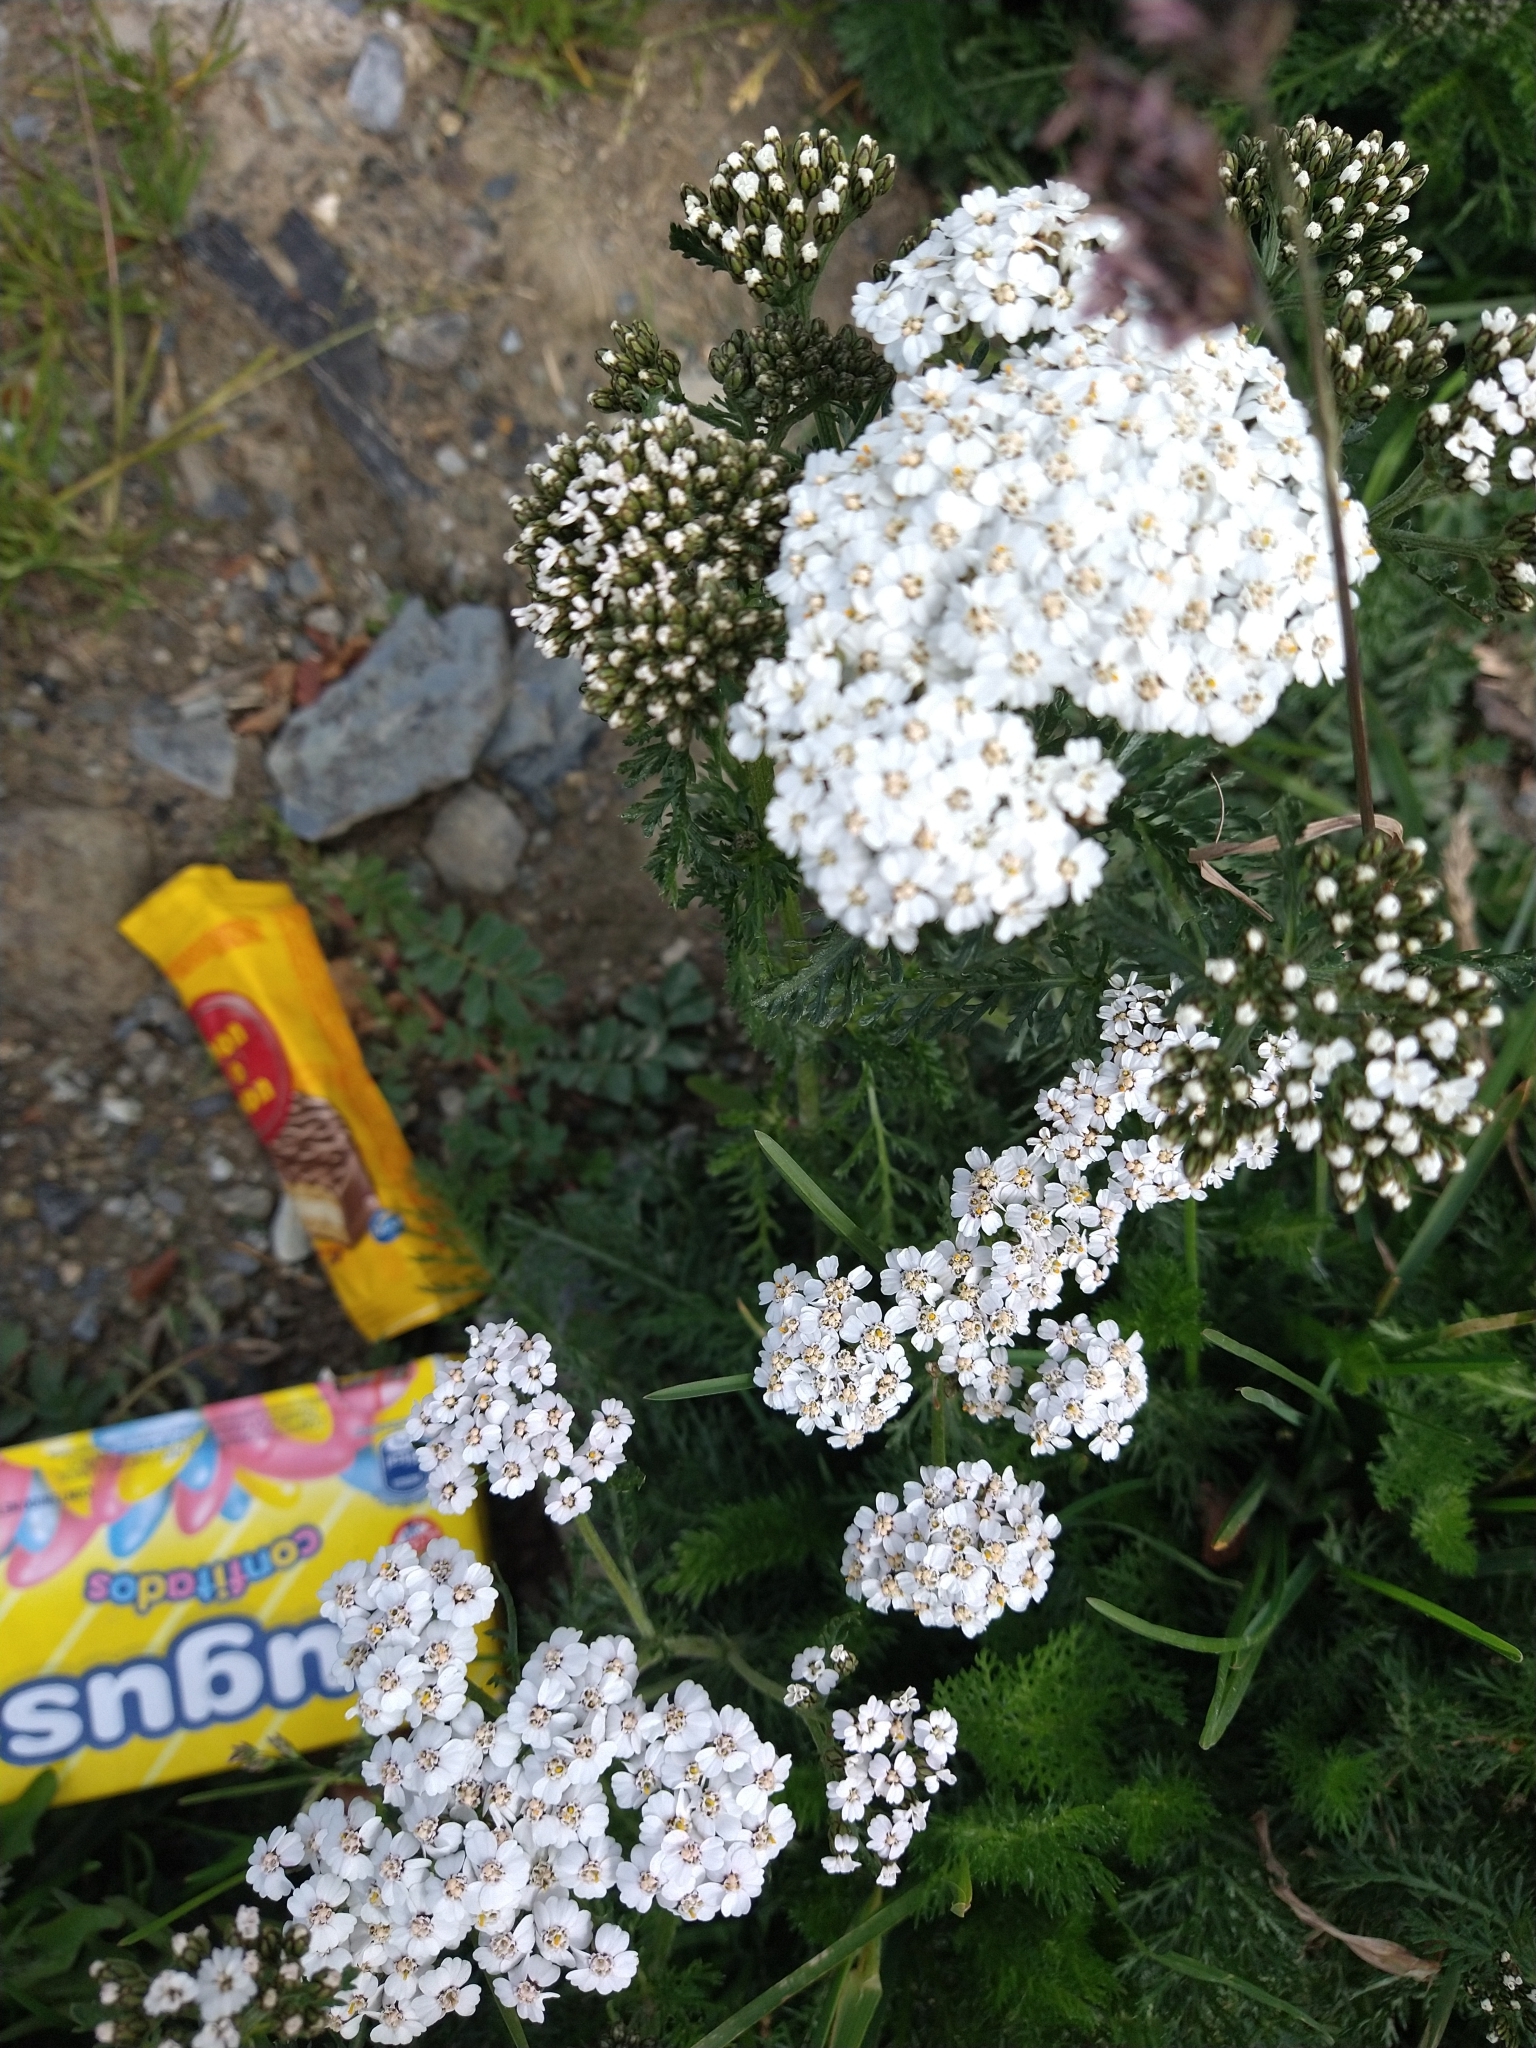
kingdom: Plantae
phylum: Tracheophyta
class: Magnoliopsida
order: Asterales
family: Asteraceae
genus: Achillea
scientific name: Achillea millefolium
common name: Yarrow
